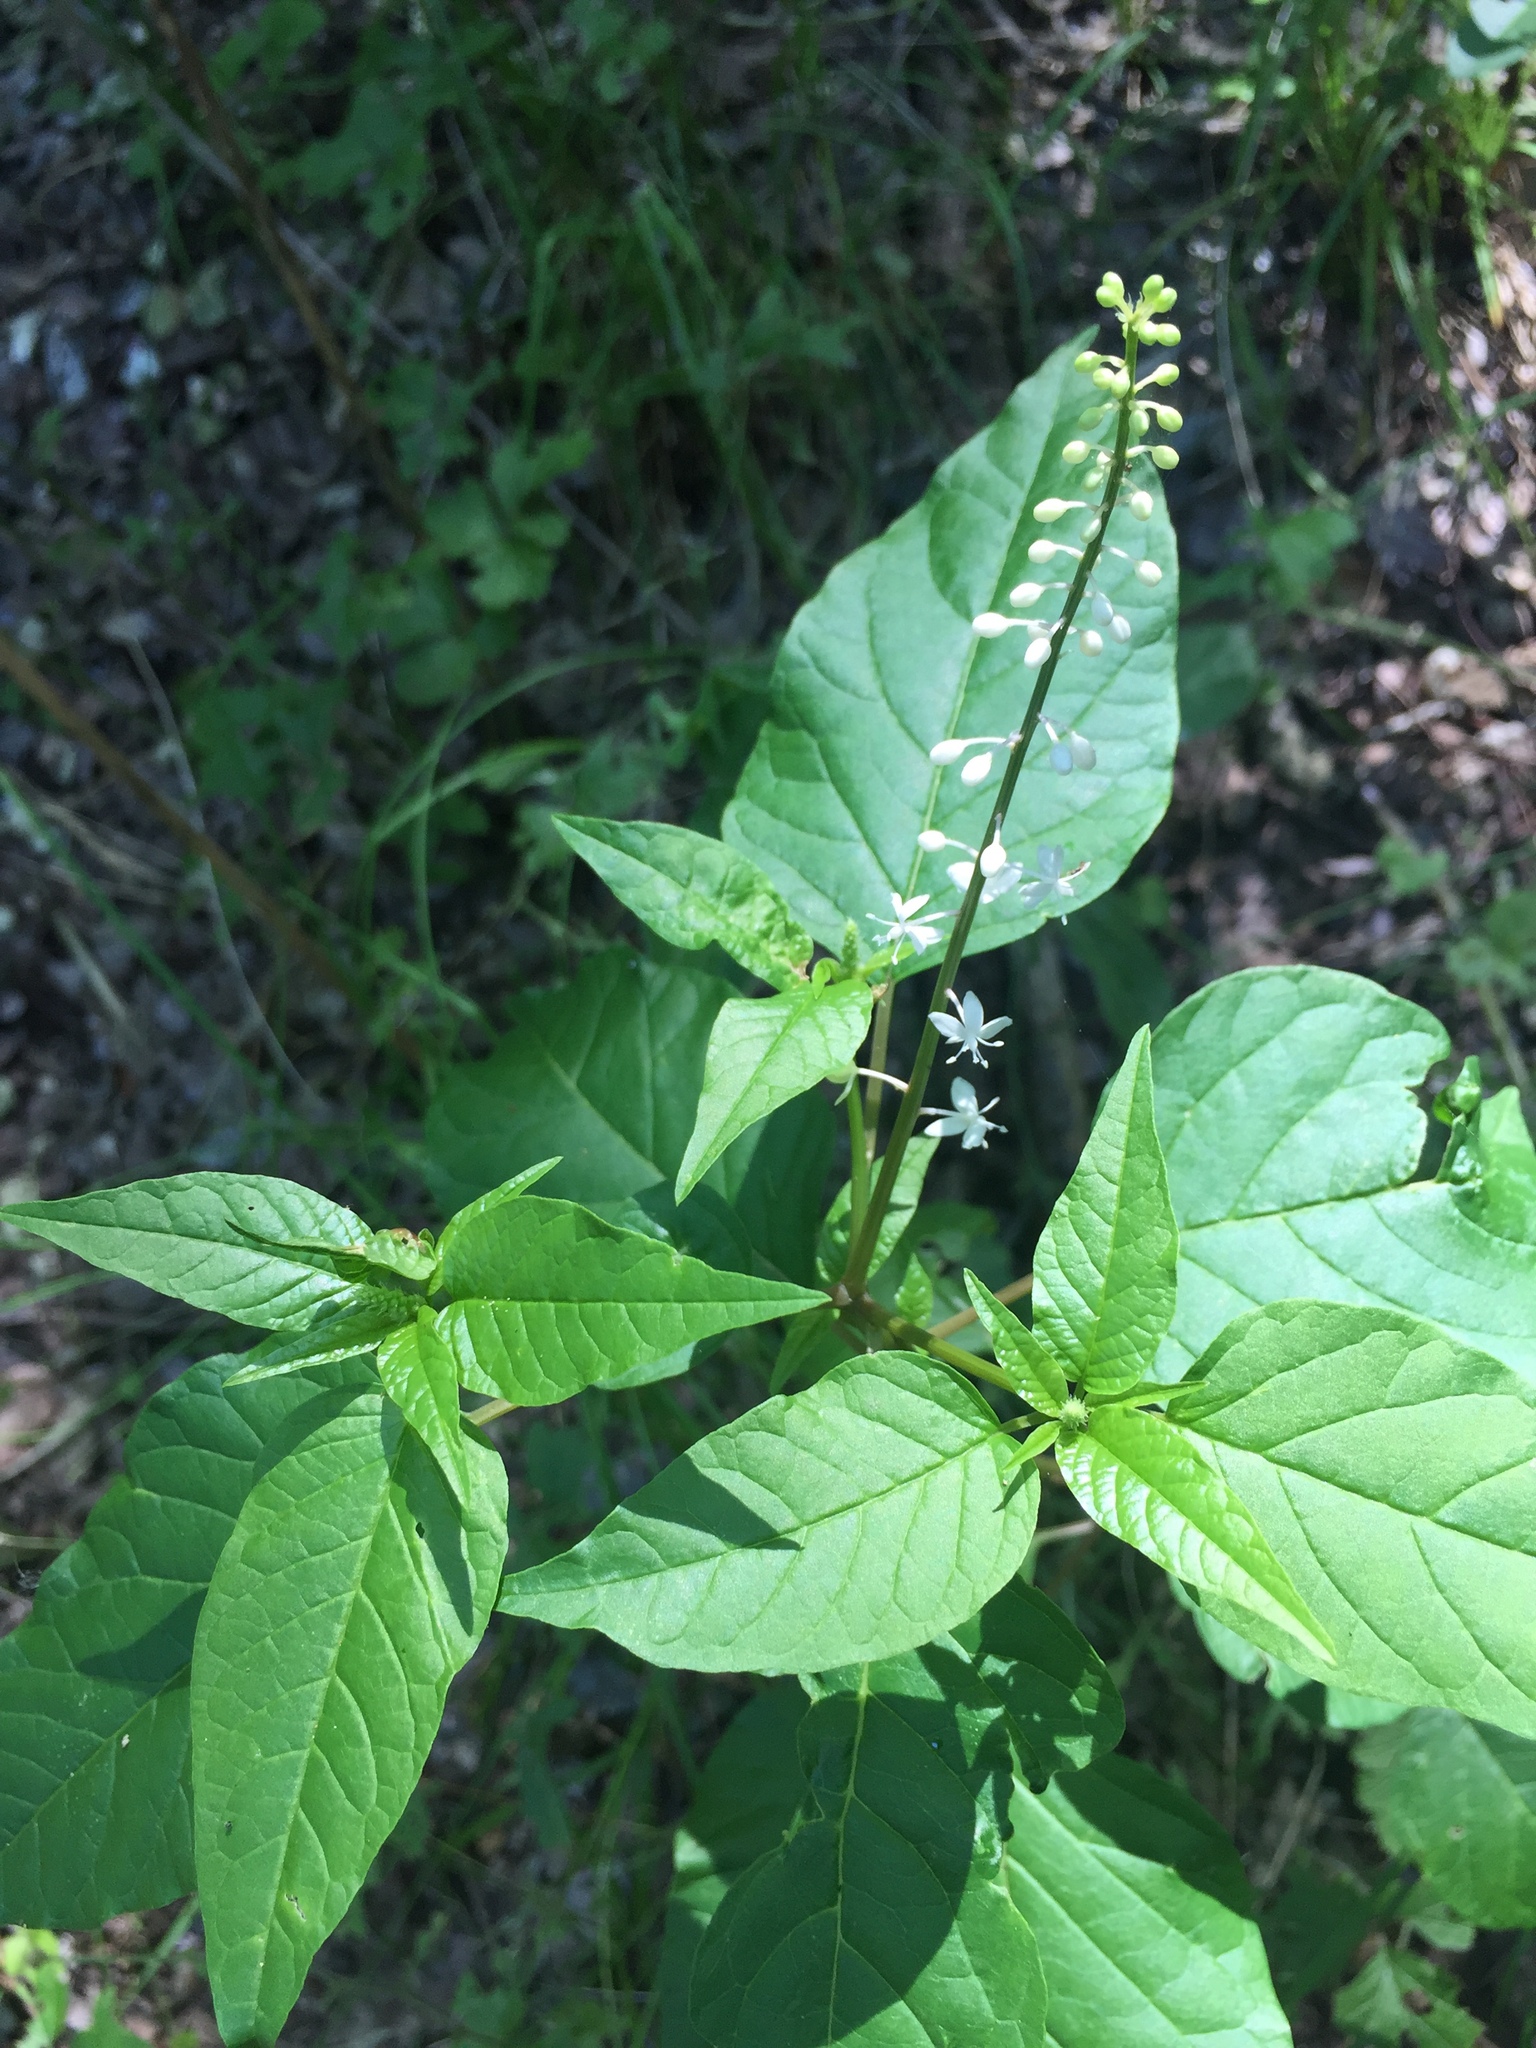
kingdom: Plantae
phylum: Tracheophyta
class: Magnoliopsida
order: Caryophyllales
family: Phytolaccaceae
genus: Rivina
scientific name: Rivina humilis
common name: Rougeplant
